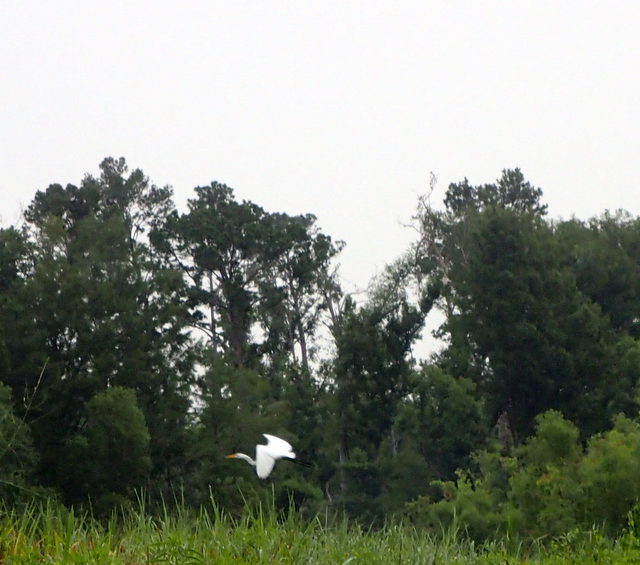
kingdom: Animalia
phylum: Chordata
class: Aves
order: Pelecaniformes
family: Ardeidae
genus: Ardea
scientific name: Ardea alba
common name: Great egret
